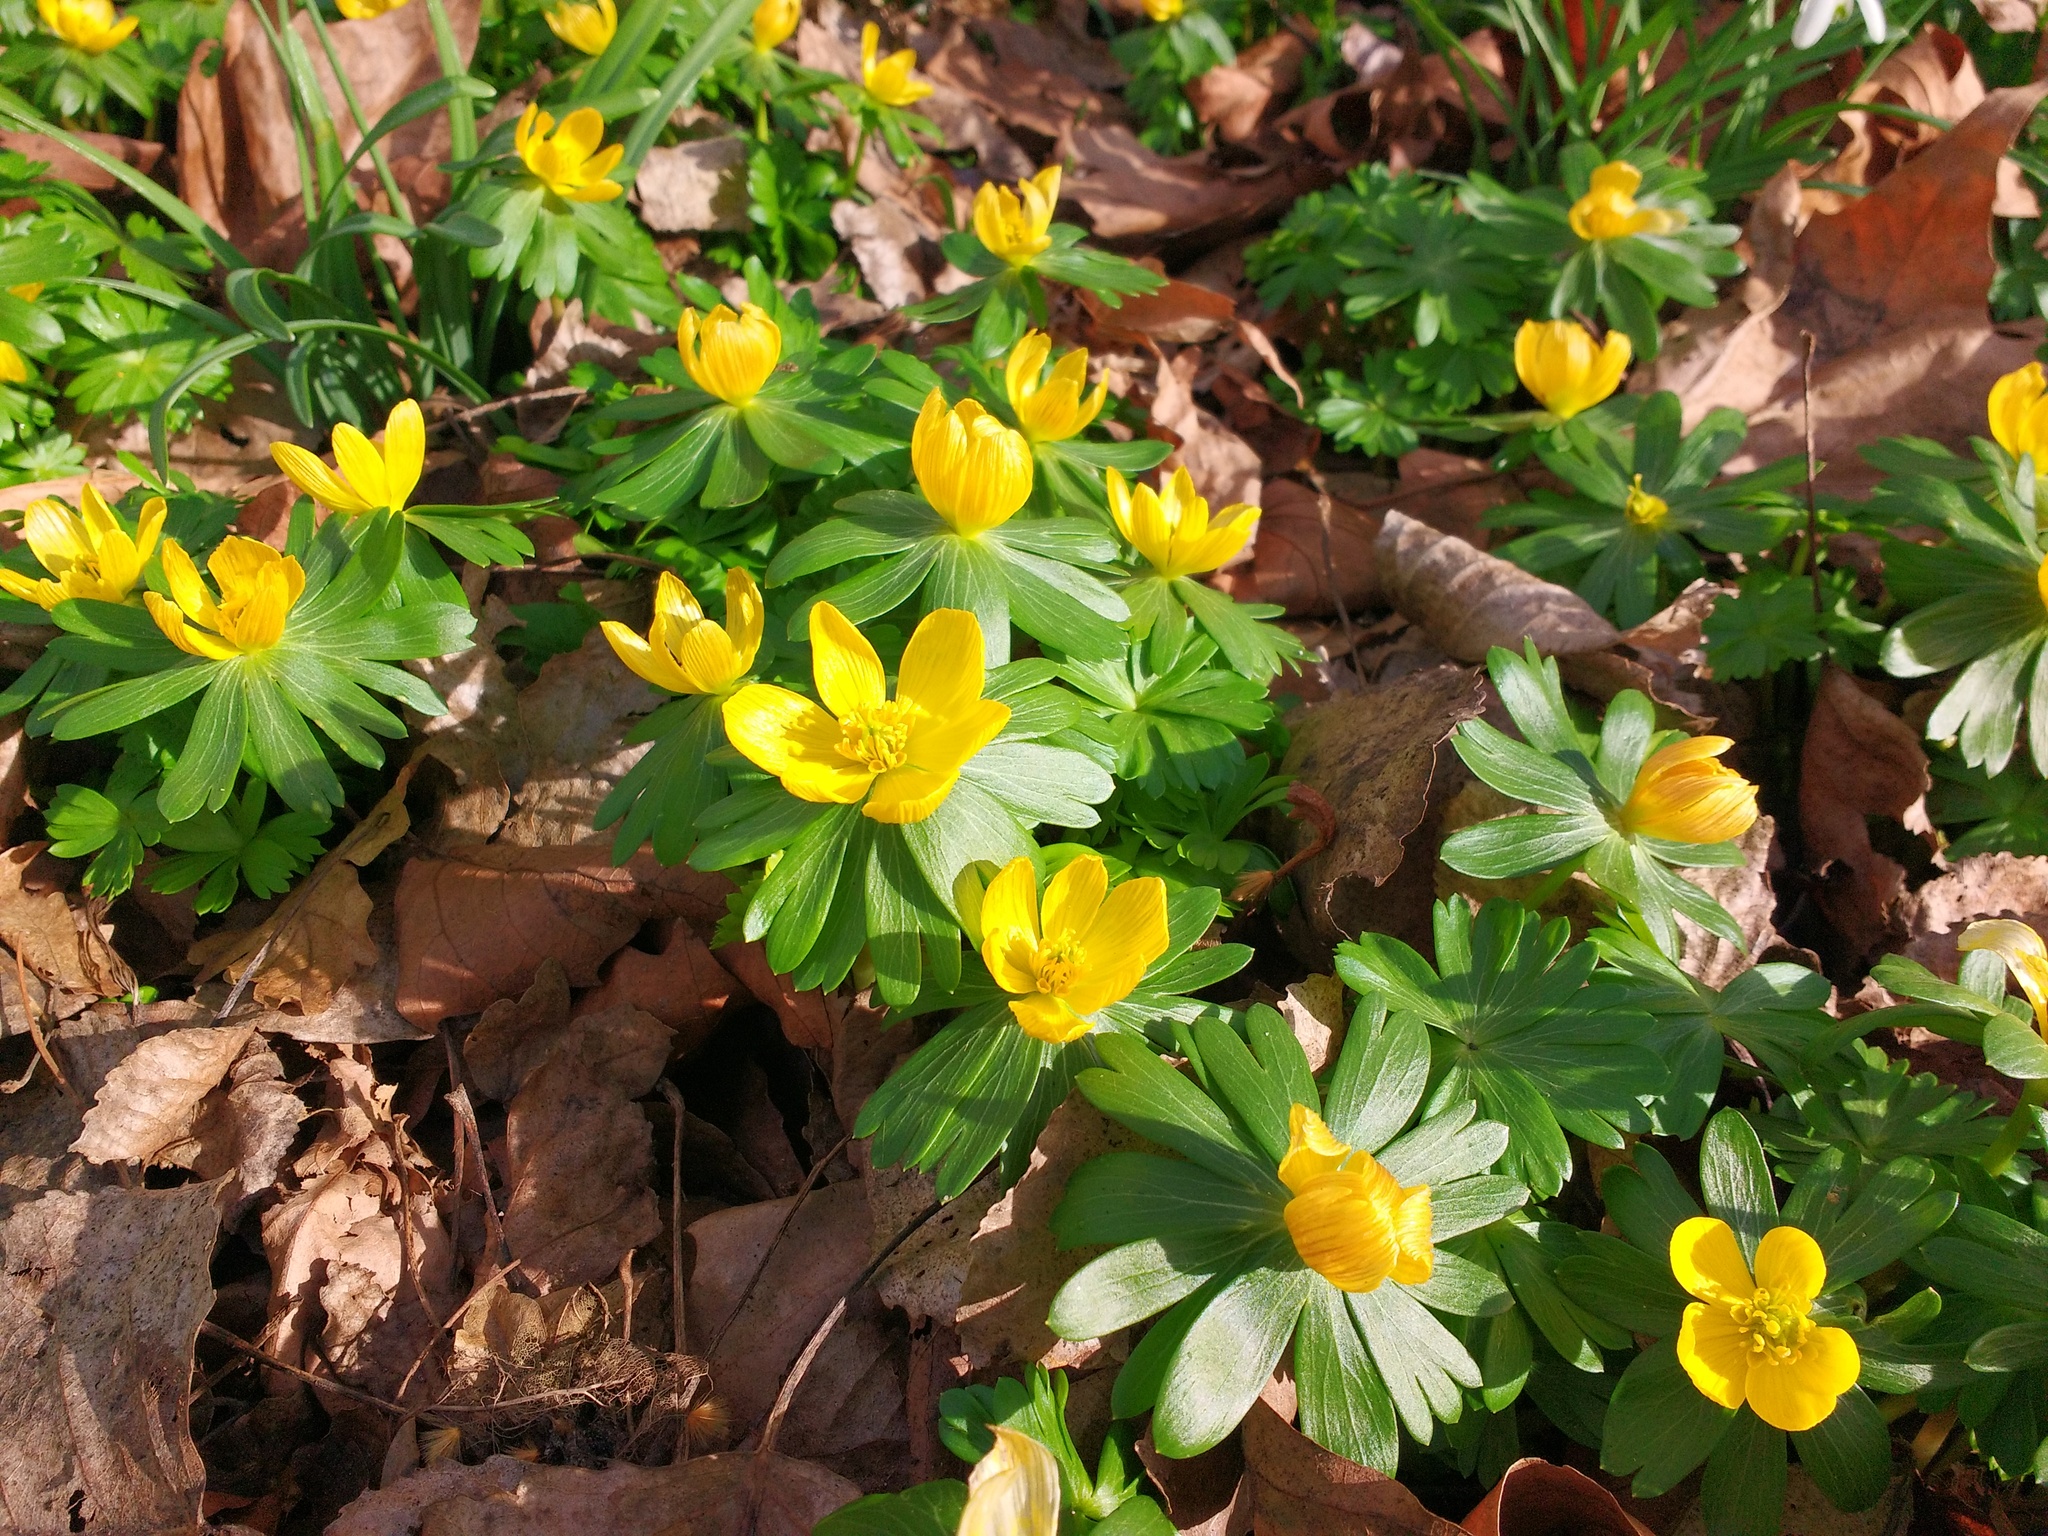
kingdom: Plantae
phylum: Tracheophyta
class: Magnoliopsida
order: Ranunculales
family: Ranunculaceae
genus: Eranthis
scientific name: Eranthis hyemalis
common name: Winter aconite
